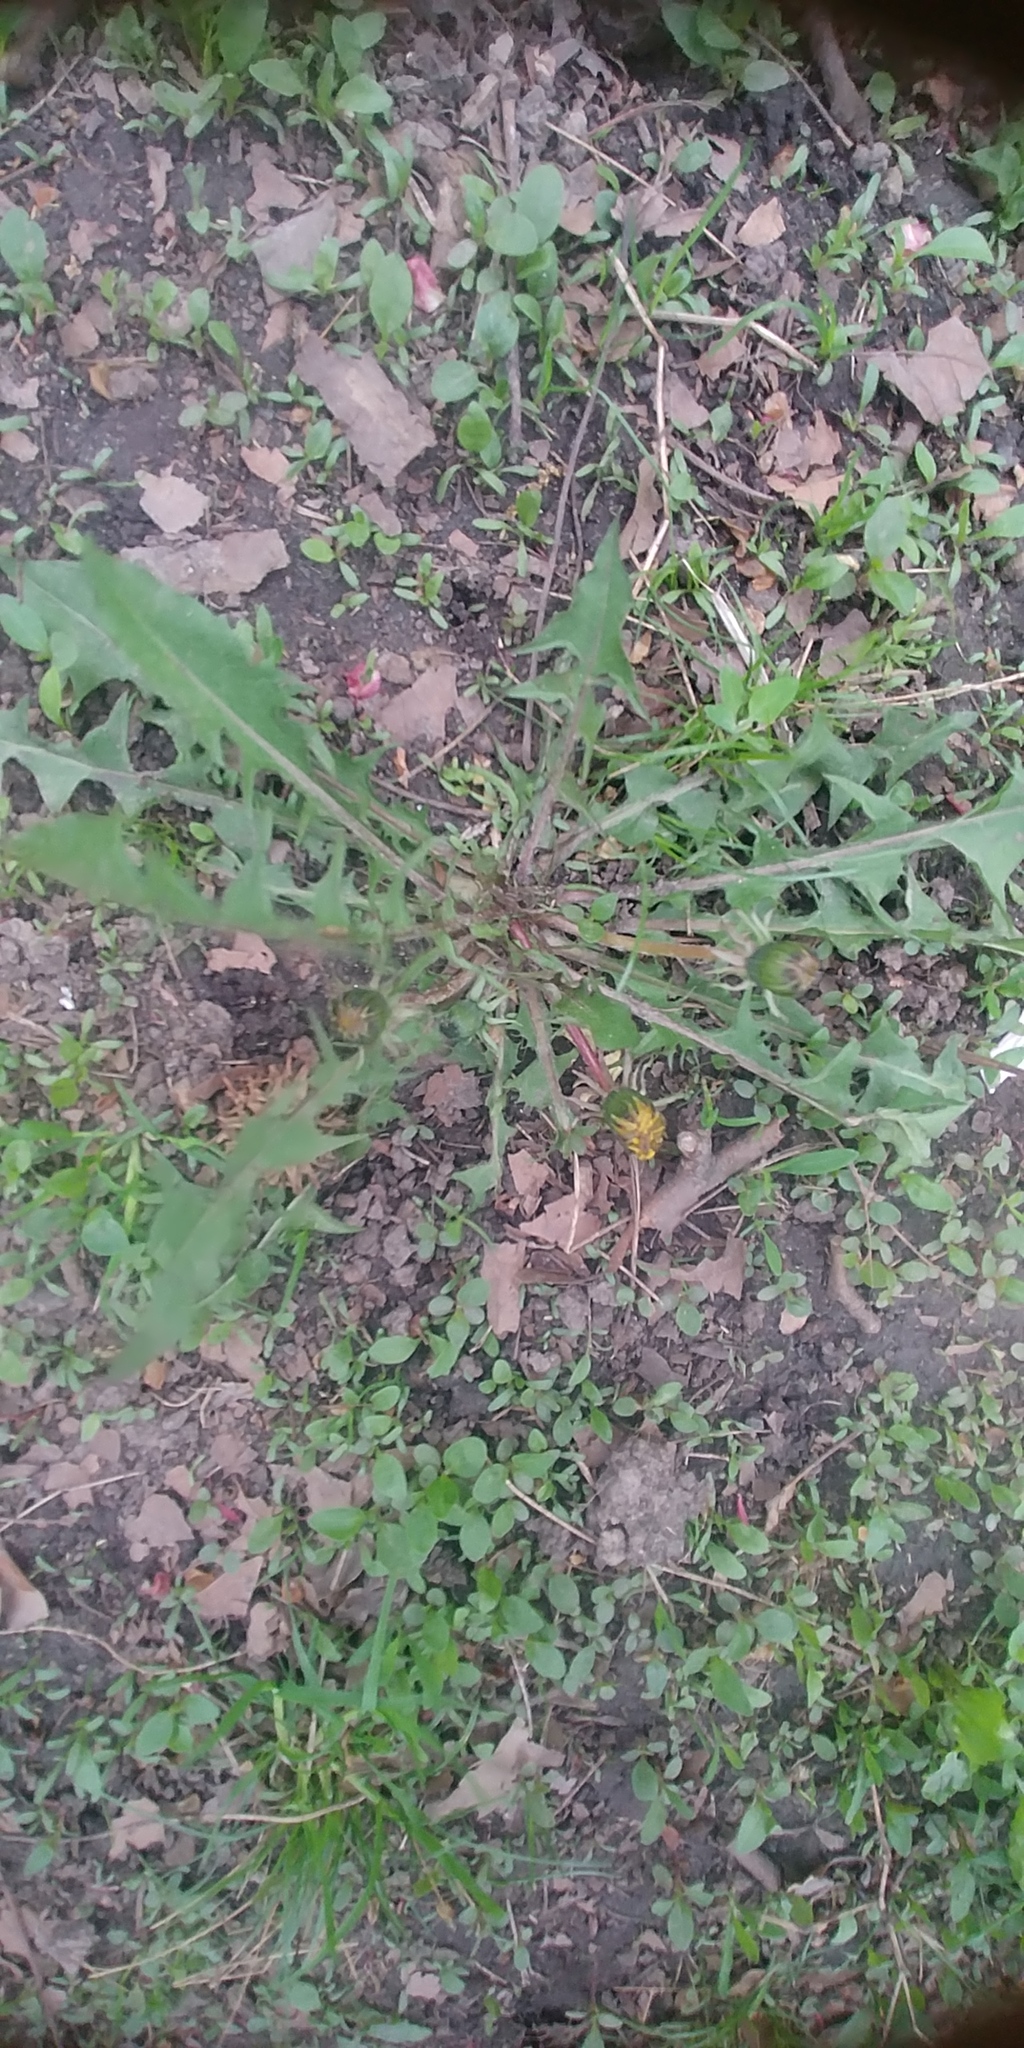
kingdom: Plantae
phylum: Tracheophyta
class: Magnoliopsida
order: Asterales
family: Asteraceae
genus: Taraxacum
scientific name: Taraxacum officinale
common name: Common dandelion
